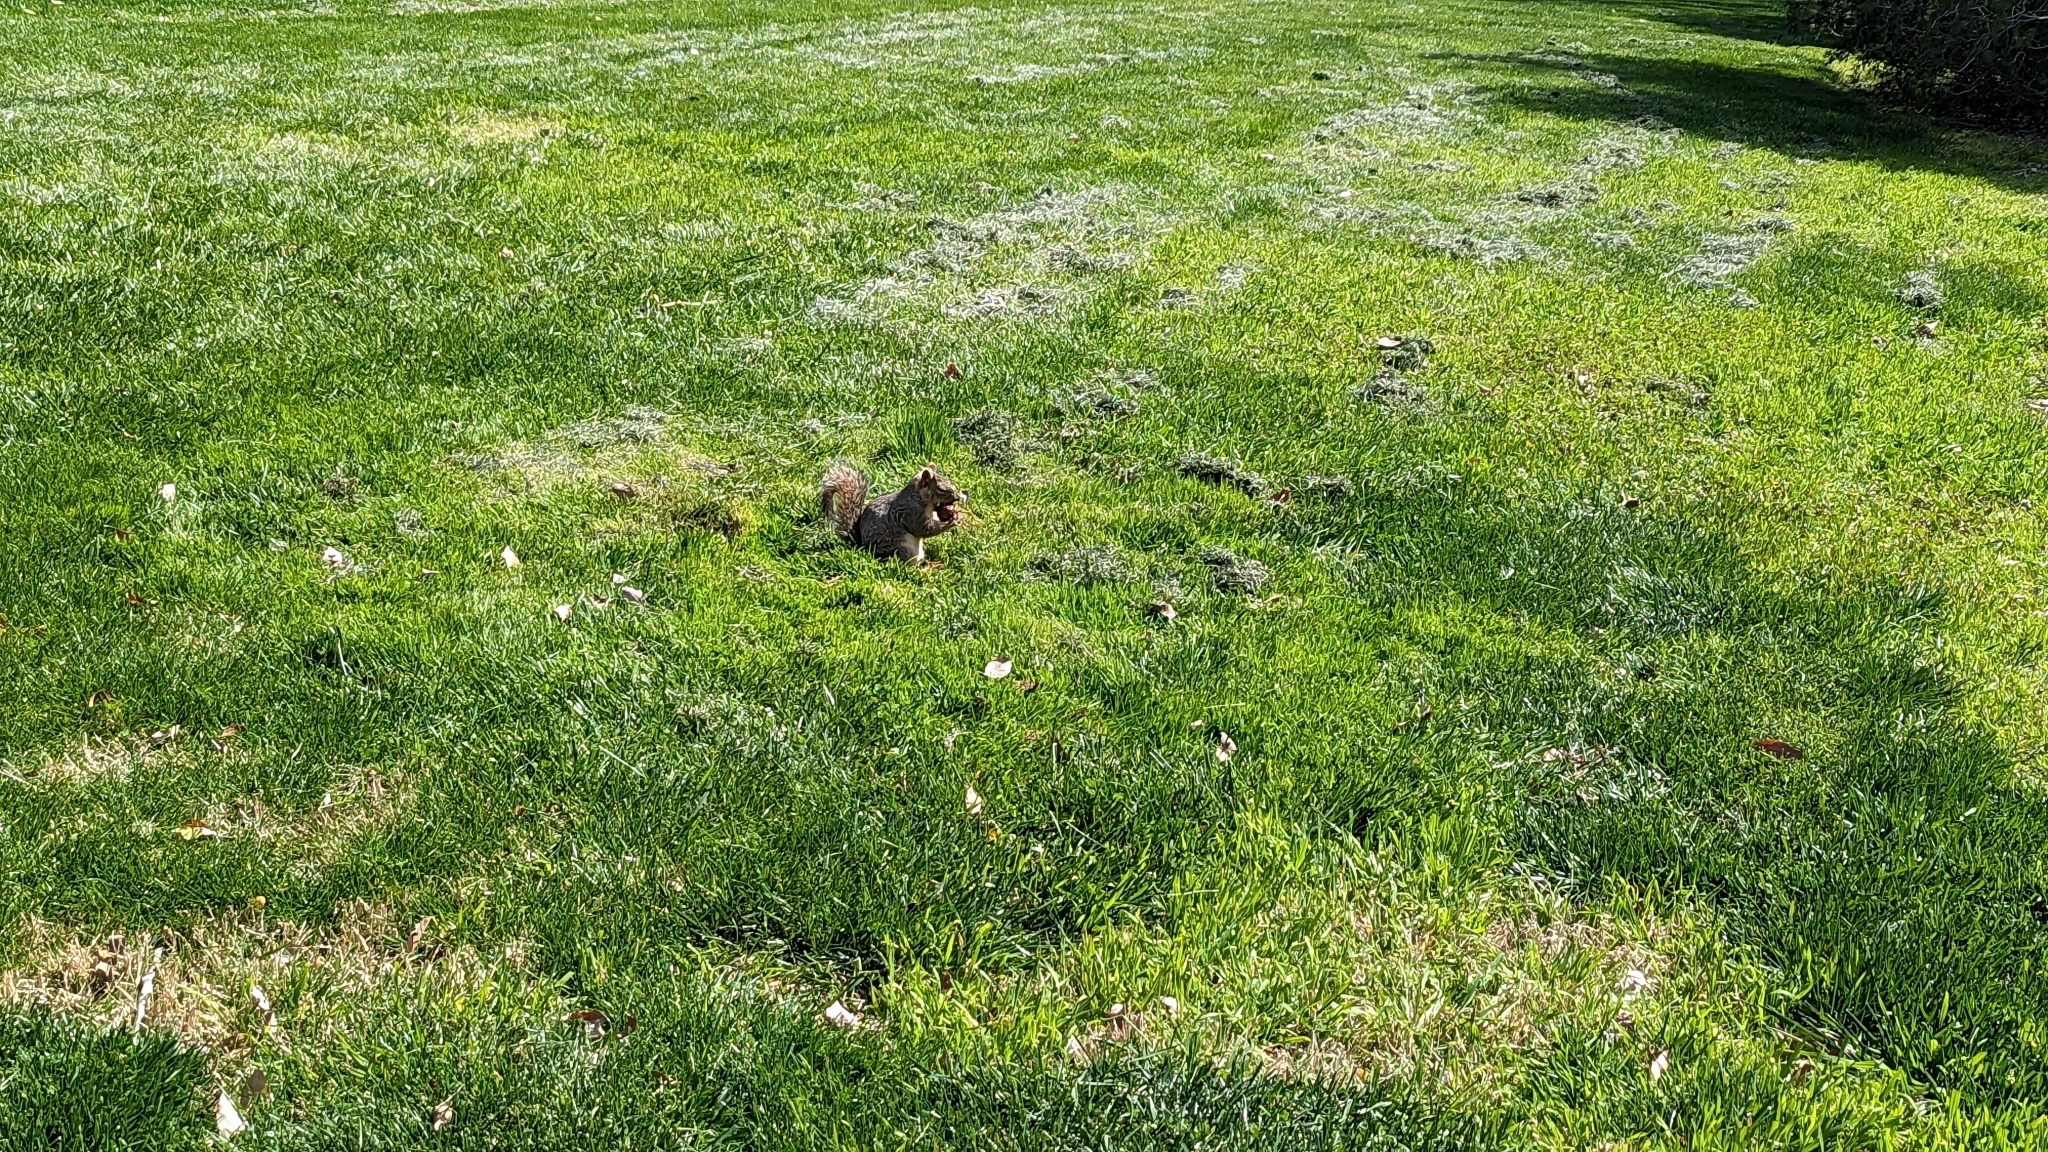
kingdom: Animalia
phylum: Chordata
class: Mammalia
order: Rodentia
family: Sciuridae
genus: Sciurus
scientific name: Sciurus niger
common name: Fox squirrel
